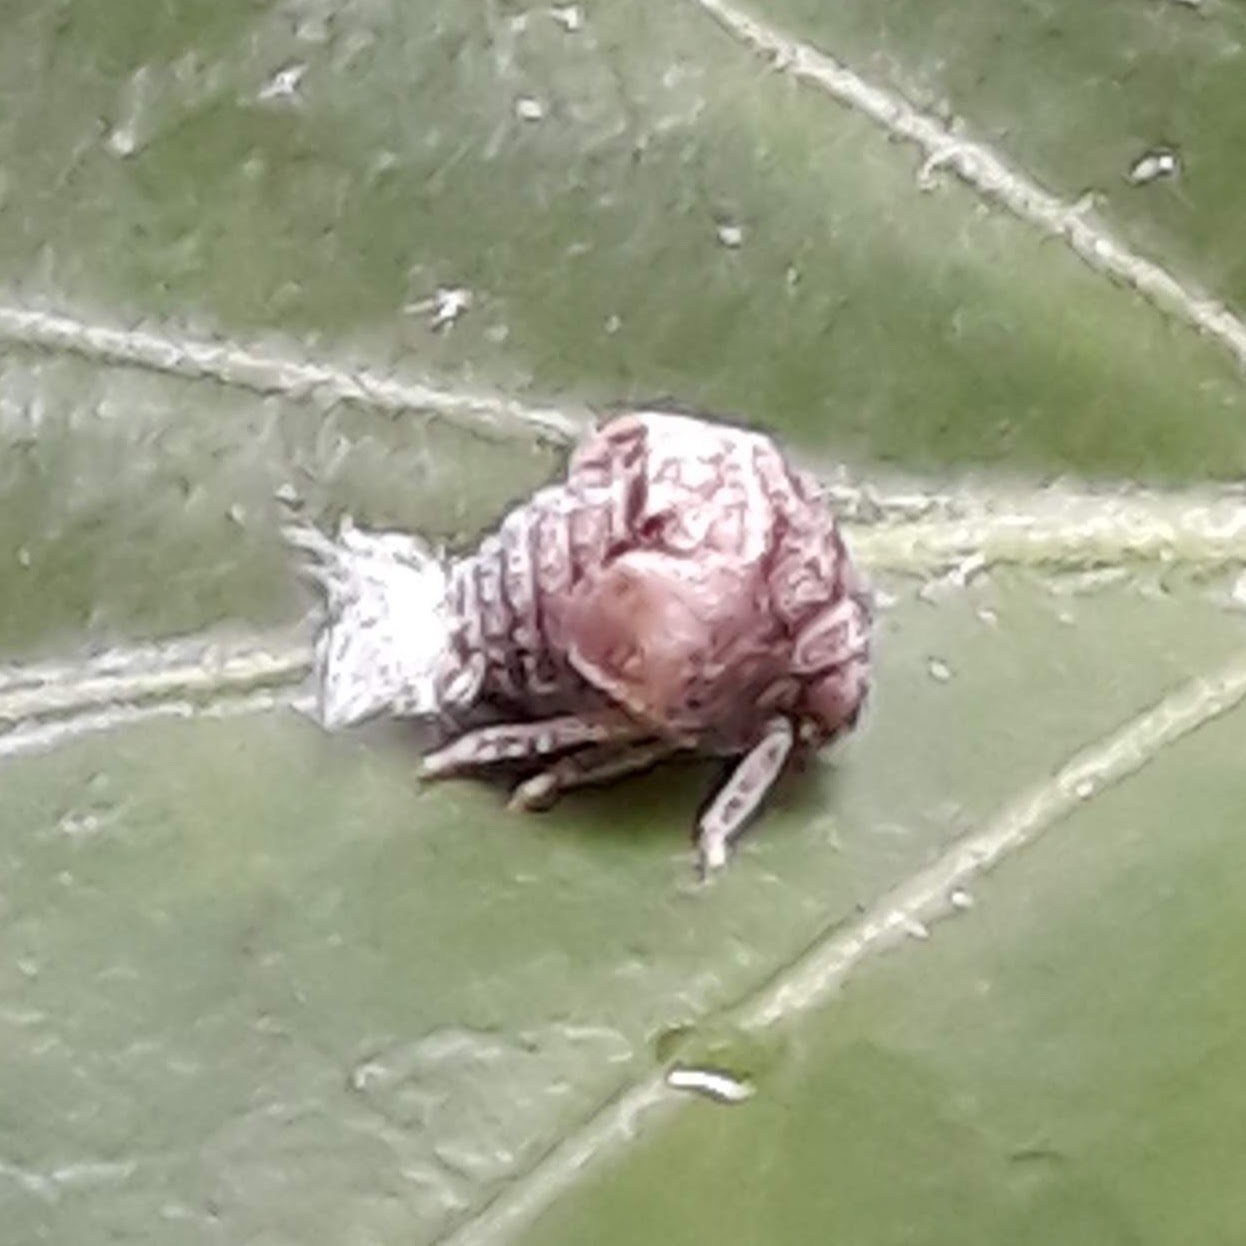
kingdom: Animalia
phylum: Arthropoda
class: Insecta
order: Hemiptera
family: Acanaloniidae
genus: Acanalonia
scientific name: Acanalonia bivittata
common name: Two-striped planthopper
